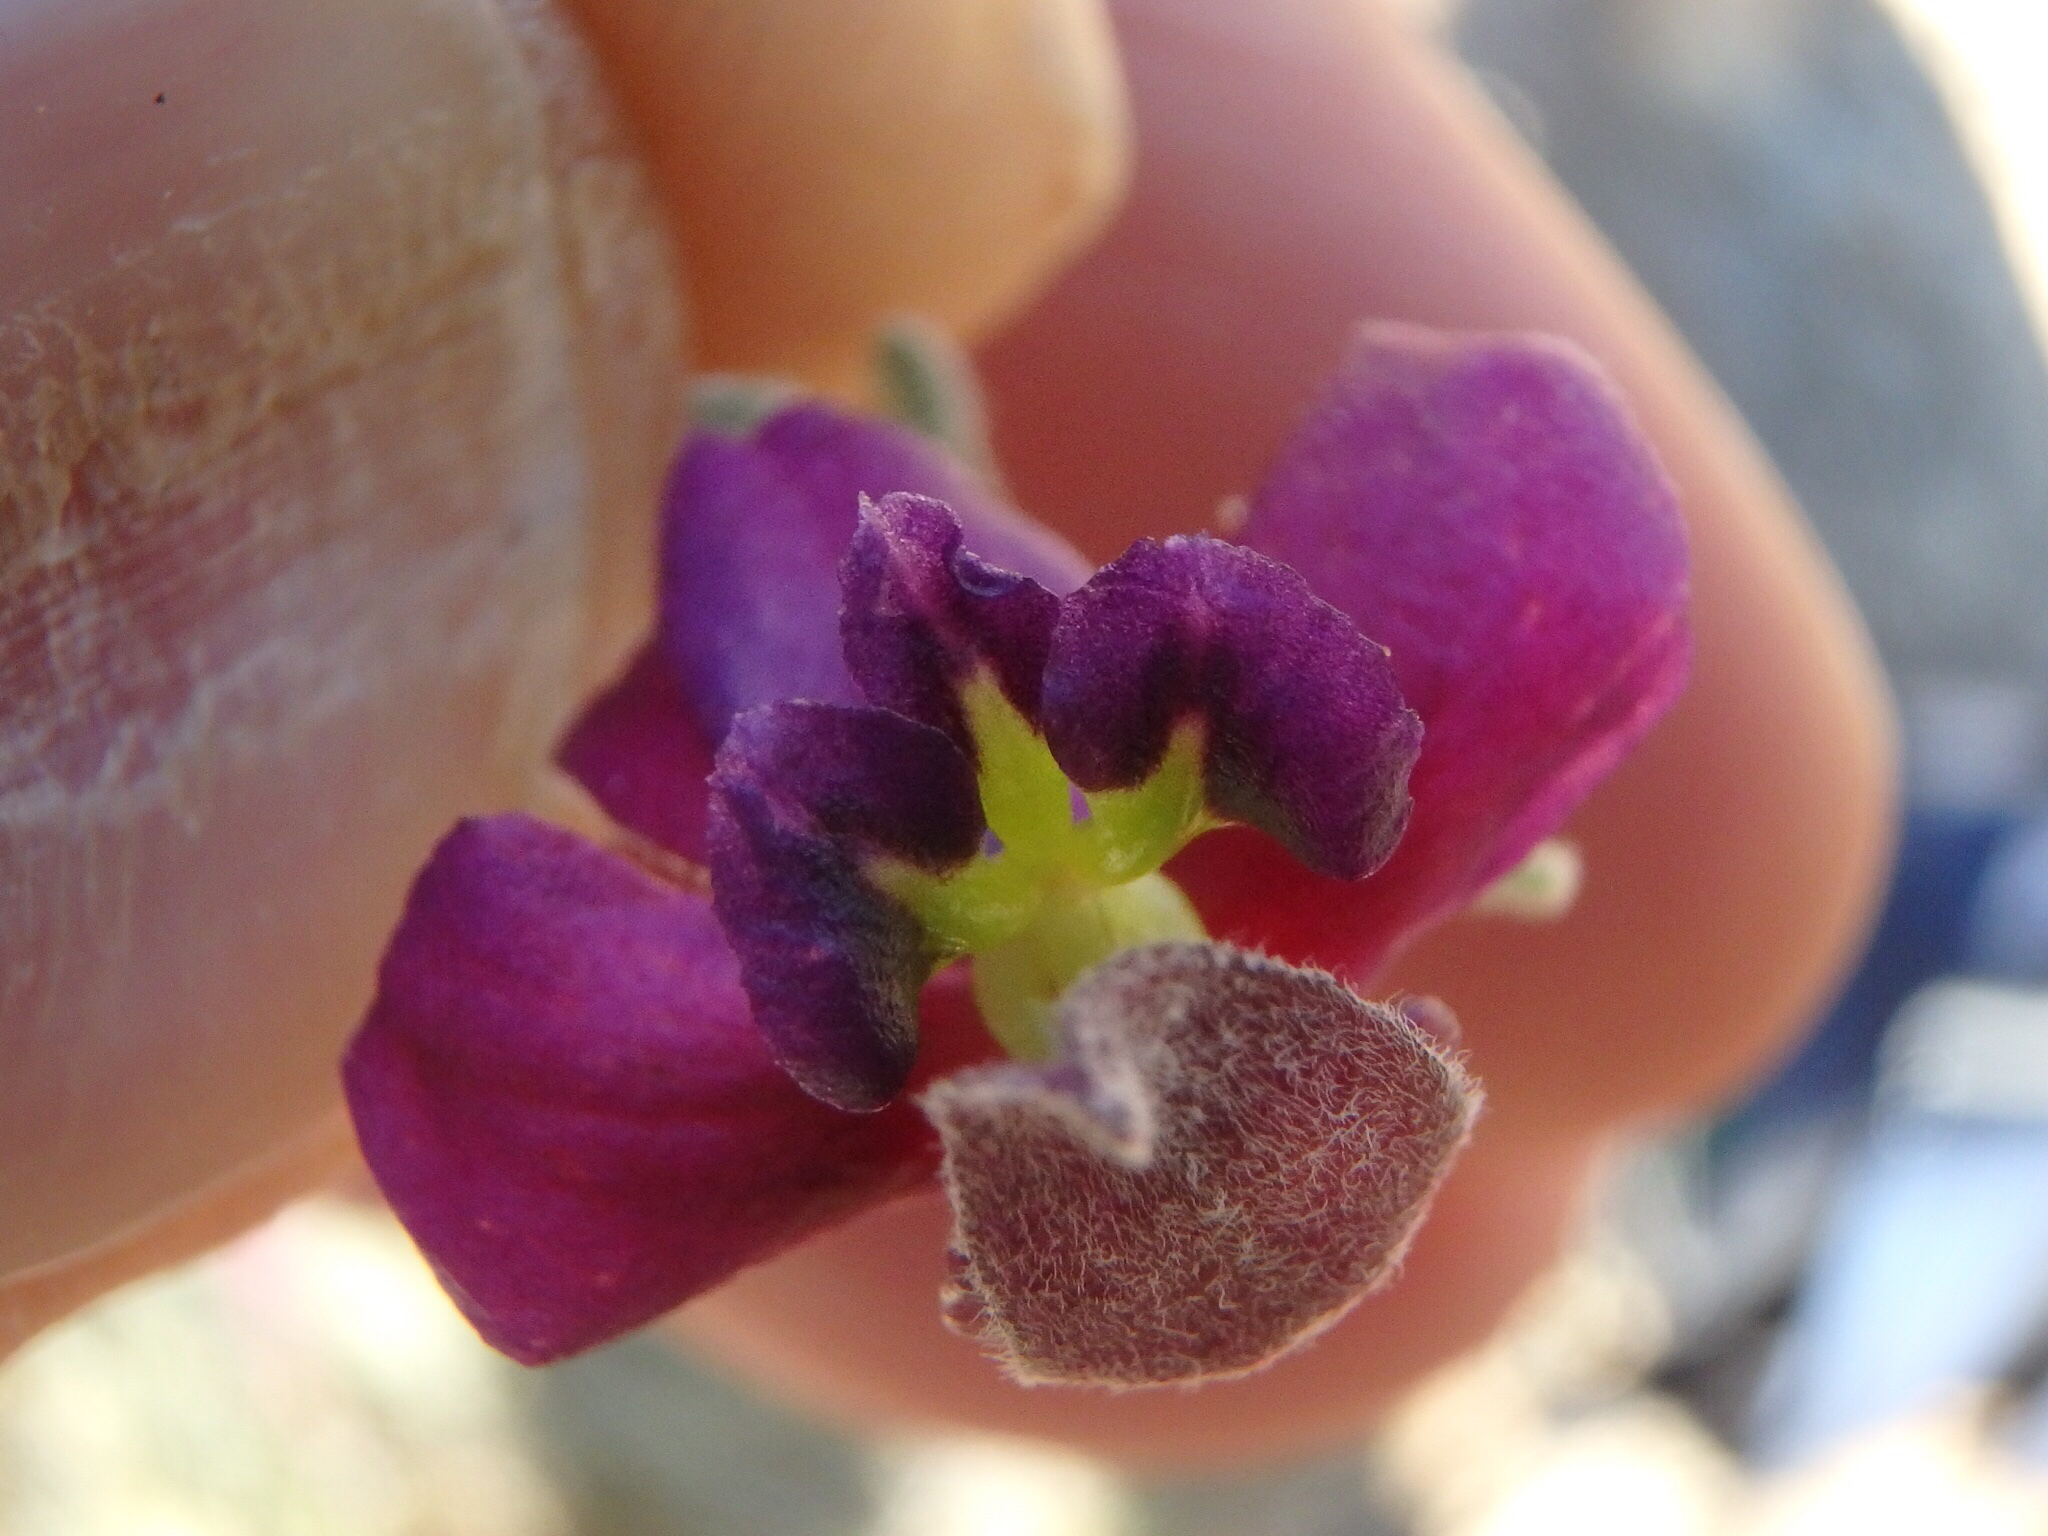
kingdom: Plantae
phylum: Tracheophyta
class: Magnoliopsida
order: Zygophyllales
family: Krameriaceae
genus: Krameria
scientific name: Krameria erecta
